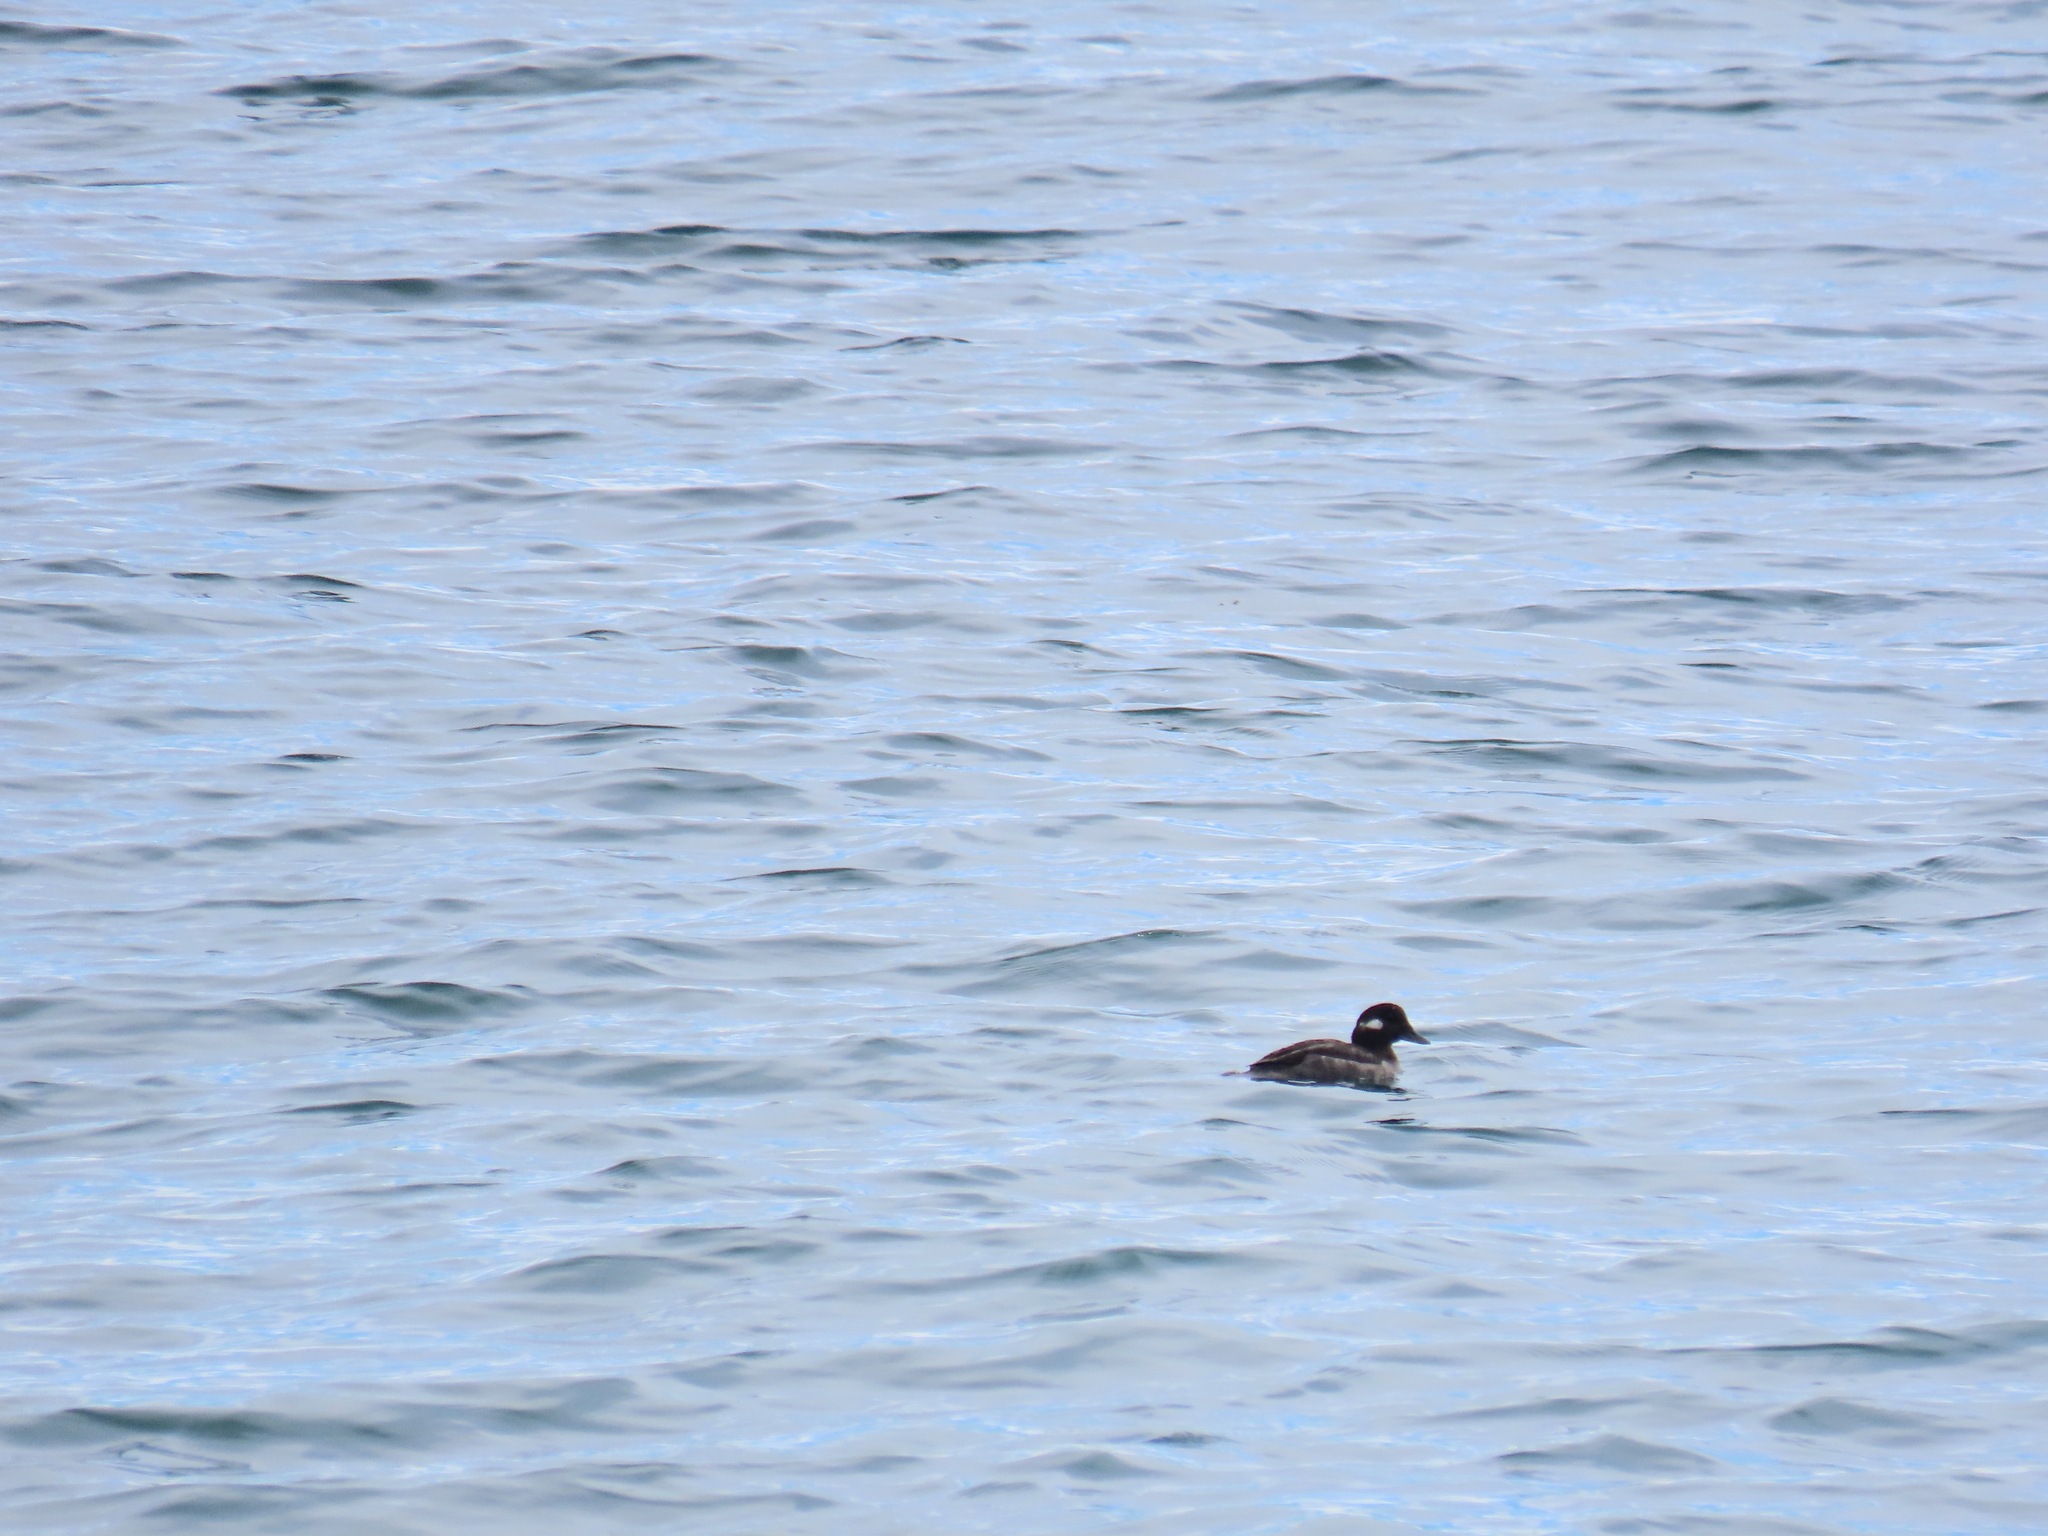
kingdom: Animalia
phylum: Chordata
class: Aves
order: Anseriformes
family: Anatidae
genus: Bucephala
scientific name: Bucephala albeola
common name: Bufflehead
